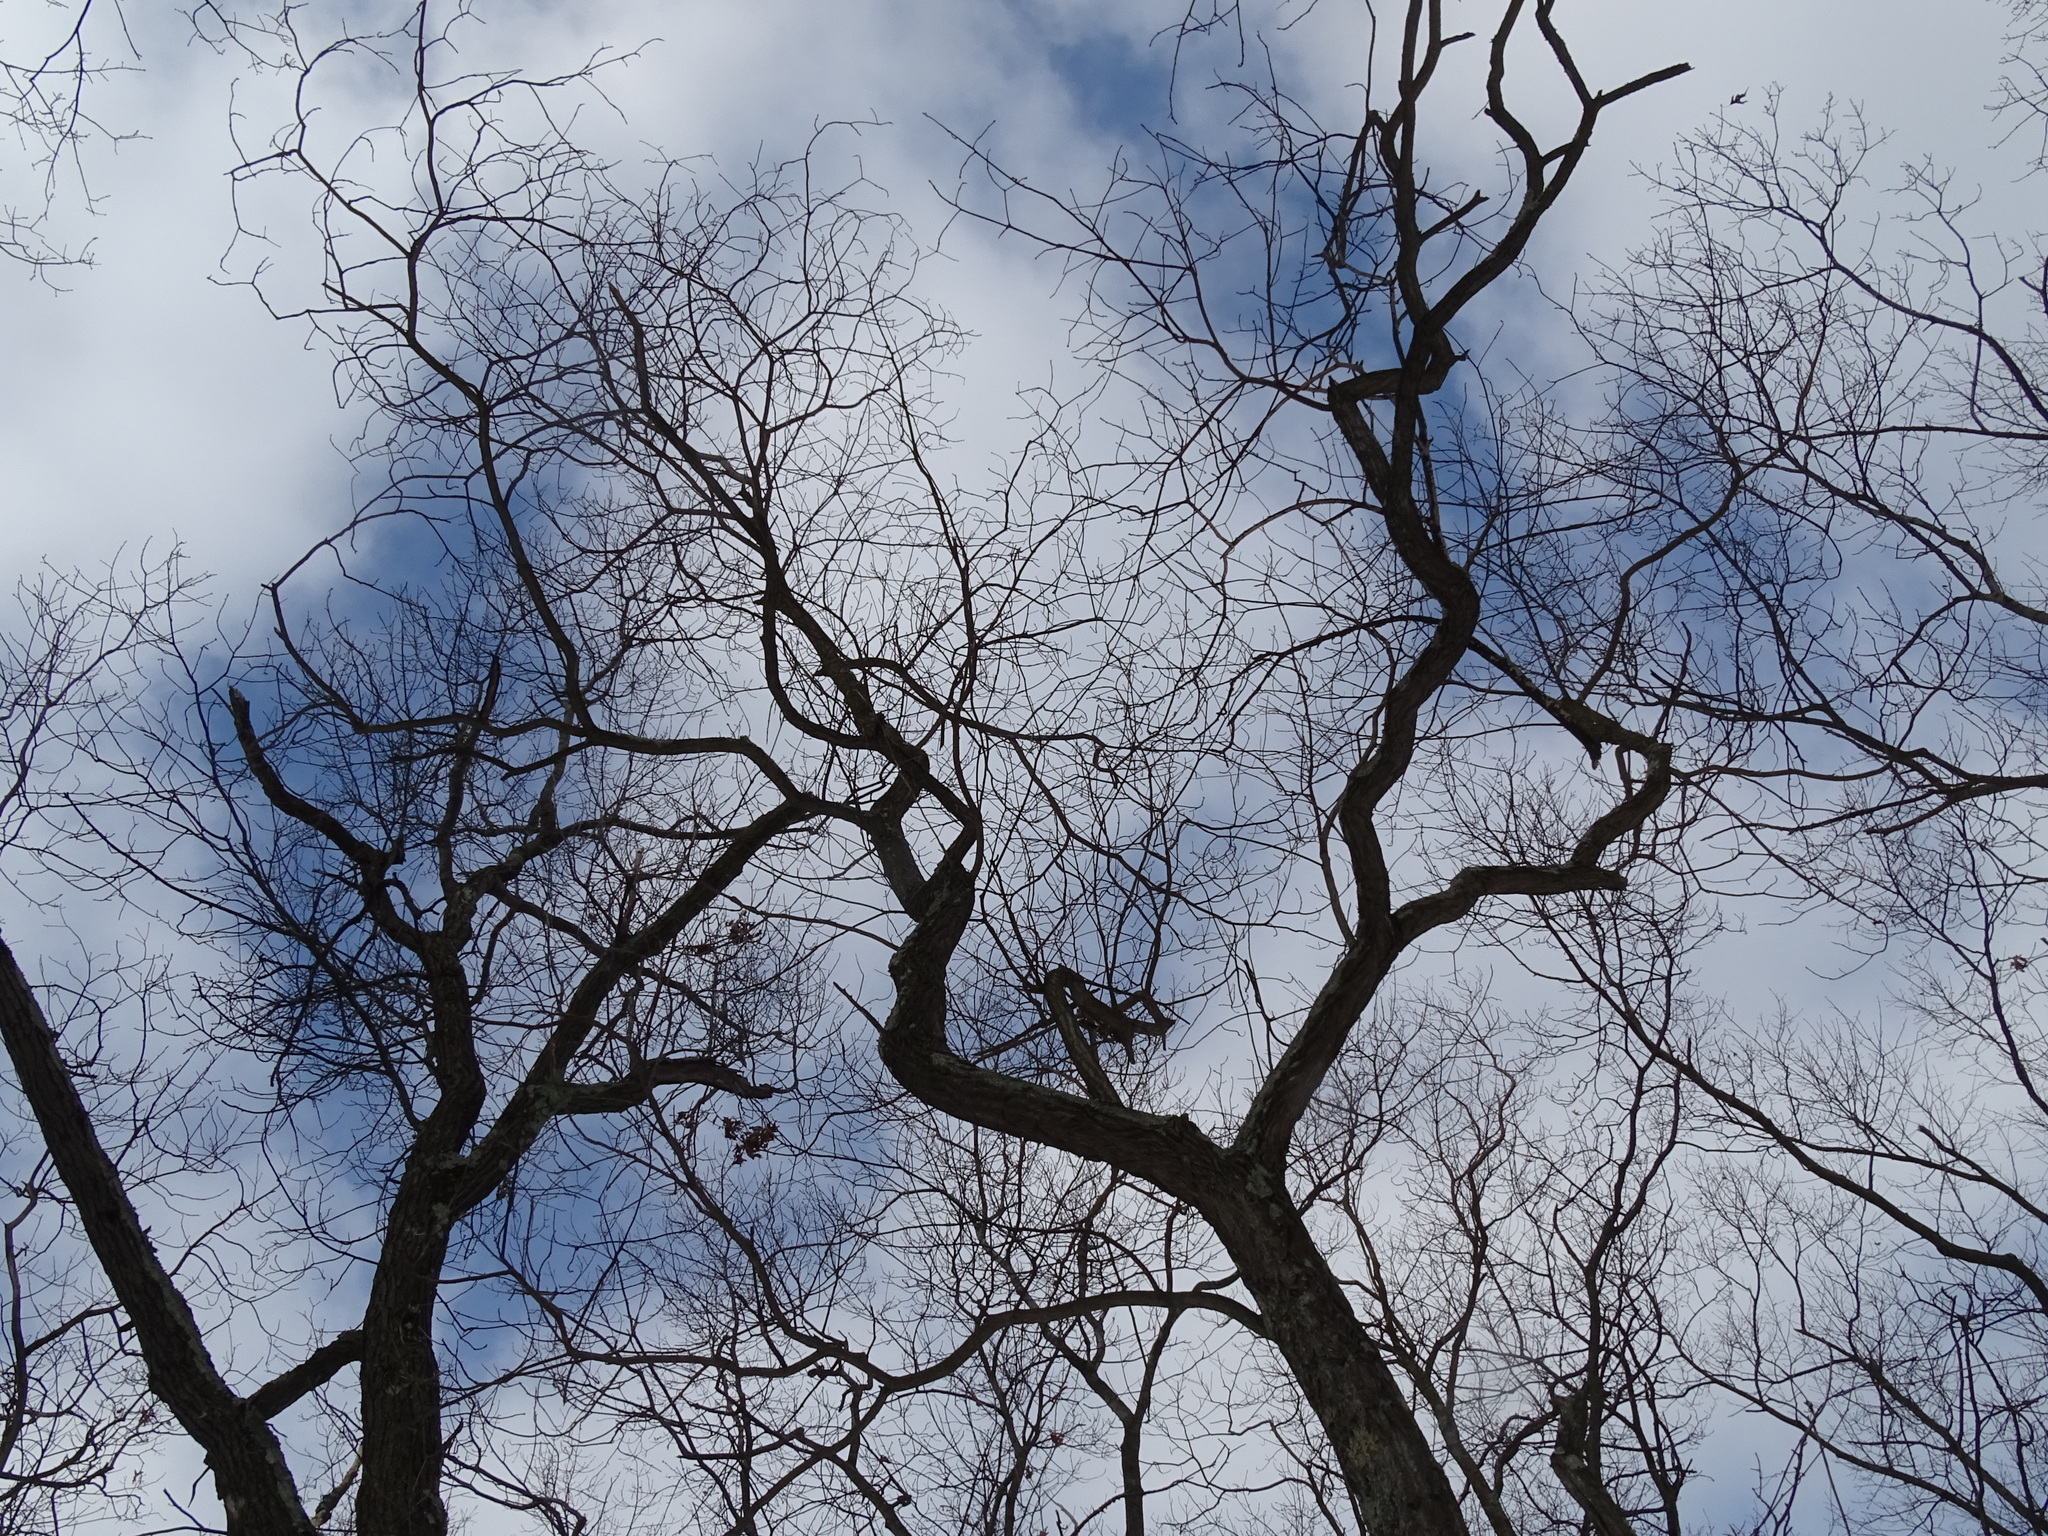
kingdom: Plantae
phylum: Tracheophyta
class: Magnoliopsida
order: Laurales
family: Lauraceae
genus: Sassafras
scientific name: Sassafras albidum
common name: Sassafras
